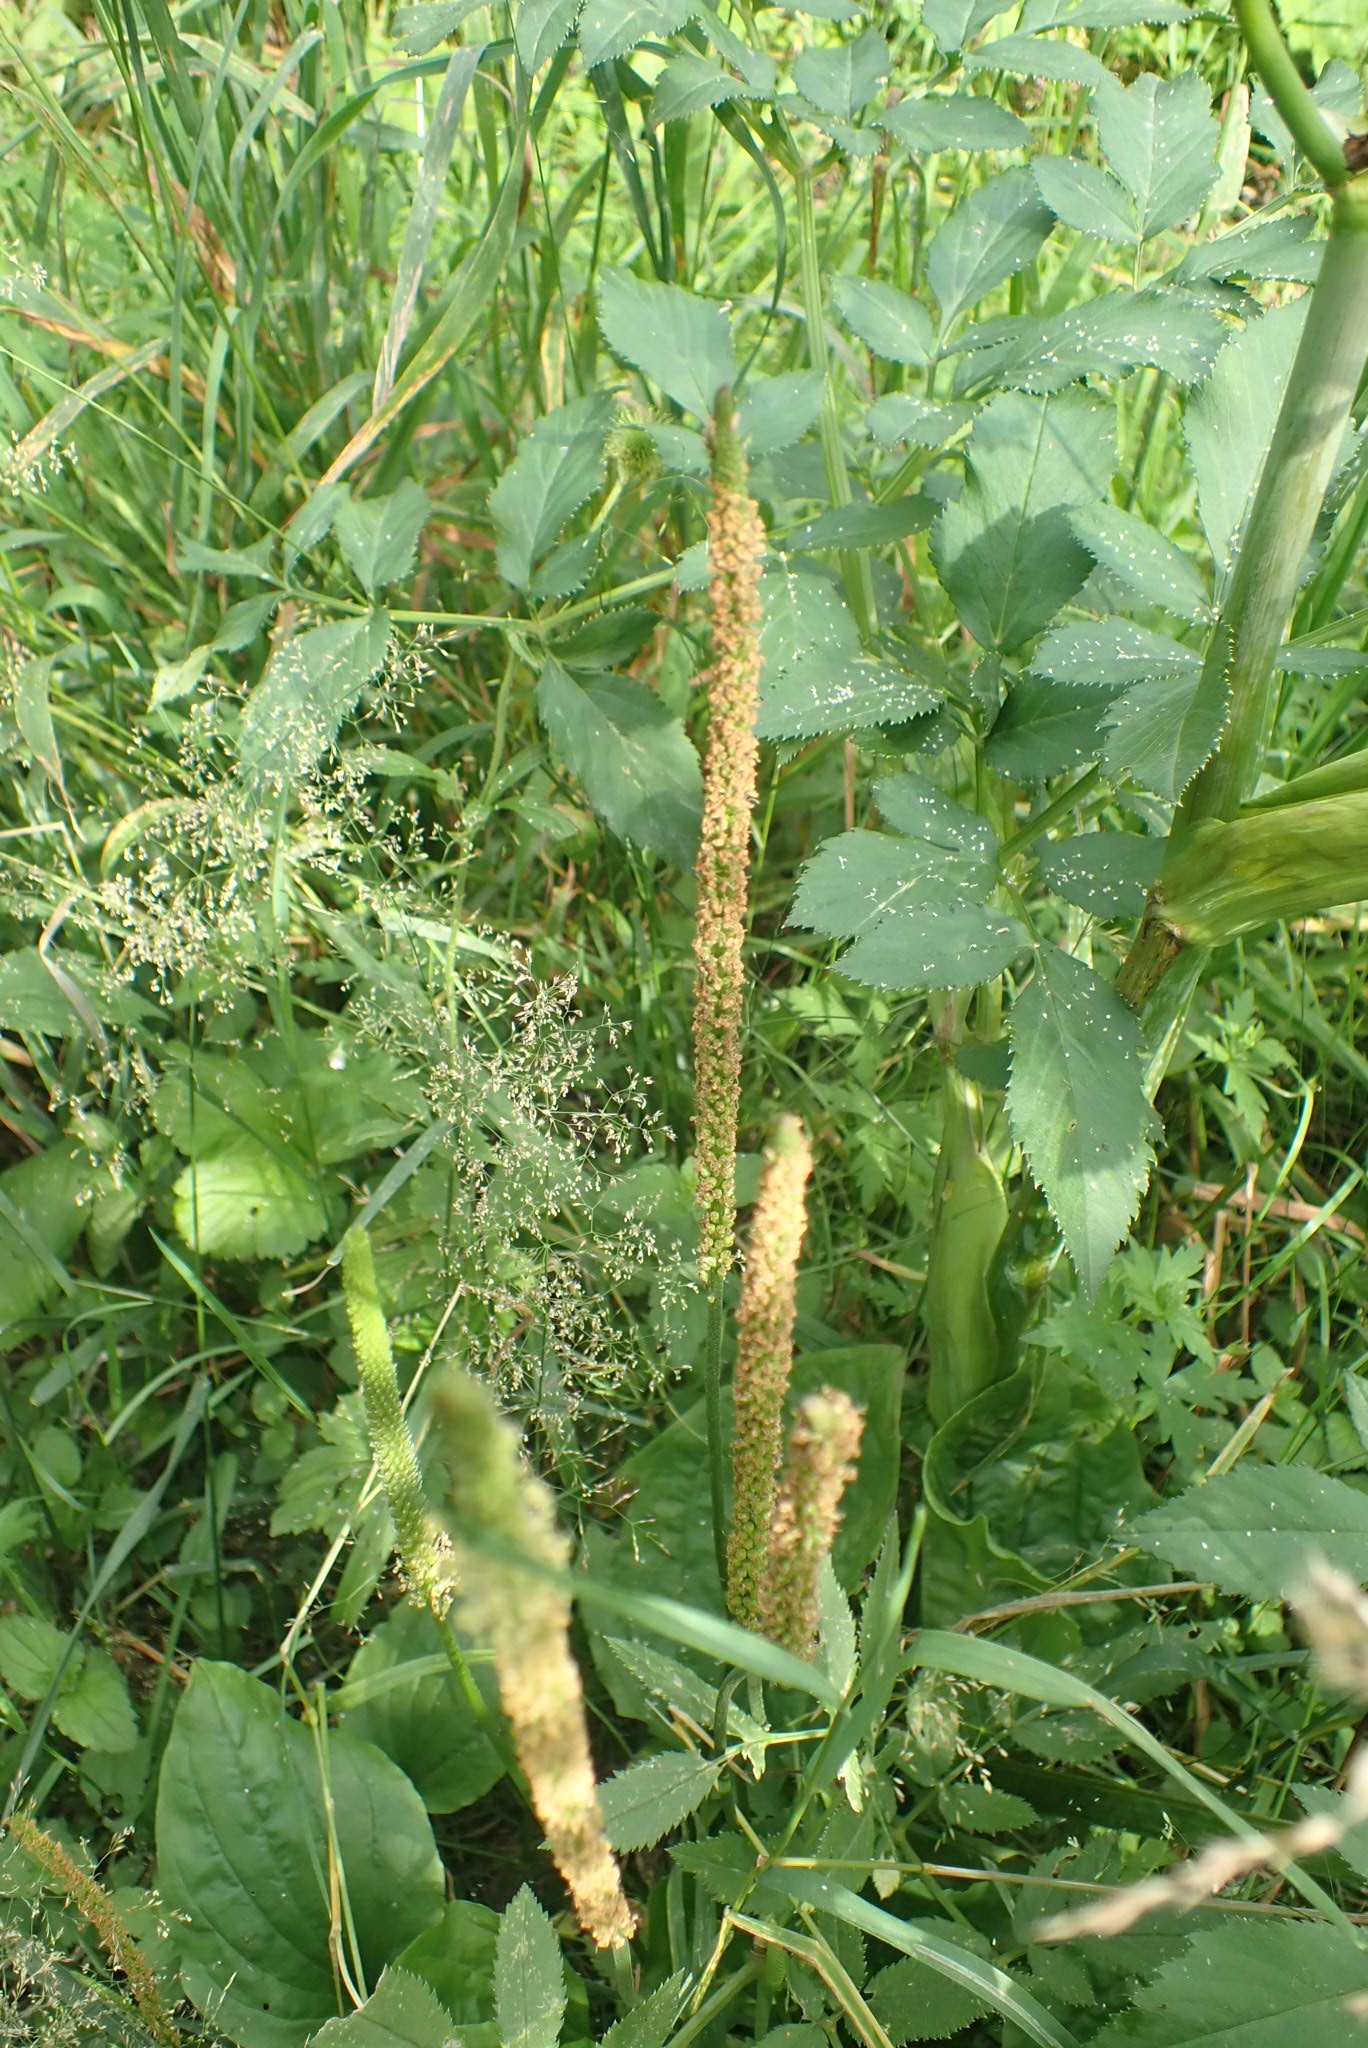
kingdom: Plantae
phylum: Tracheophyta
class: Magnoliopsida
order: Lamiales
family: Plantaginaceae
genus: Plantago
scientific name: Plantago major
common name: Common plantain
